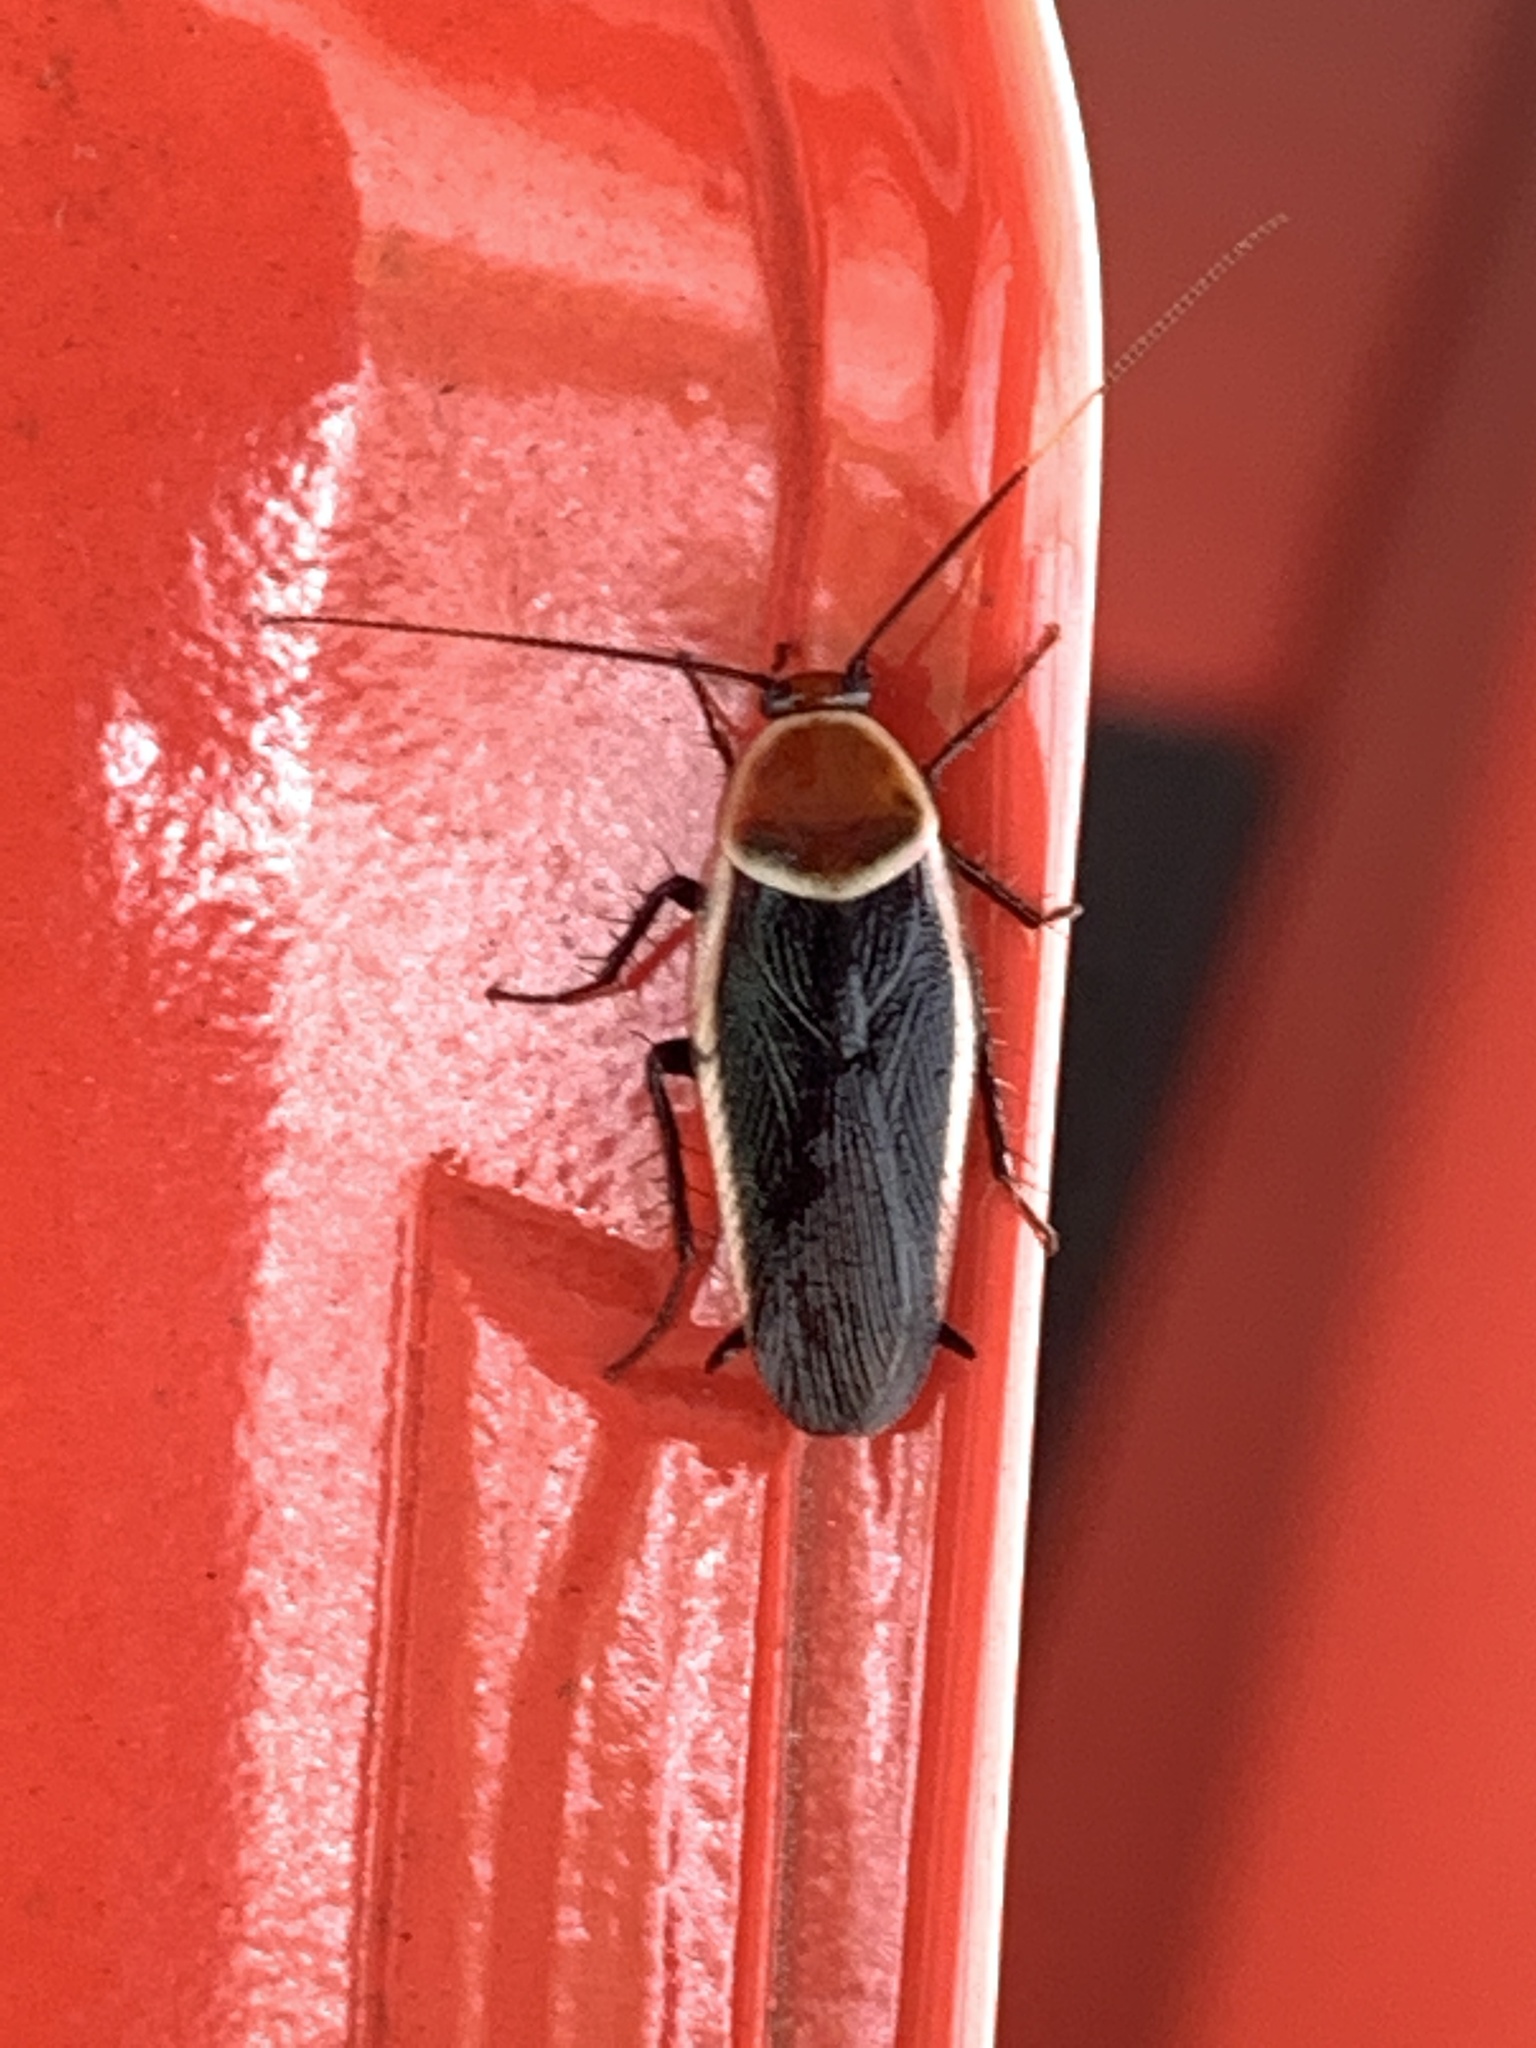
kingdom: Animalia
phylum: Arthropoda
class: Insecta
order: Blattodea
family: Ectobiidae
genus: Pseudomops
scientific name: Pseudomops septentrionalis
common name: Pale-bordered field cockroach
